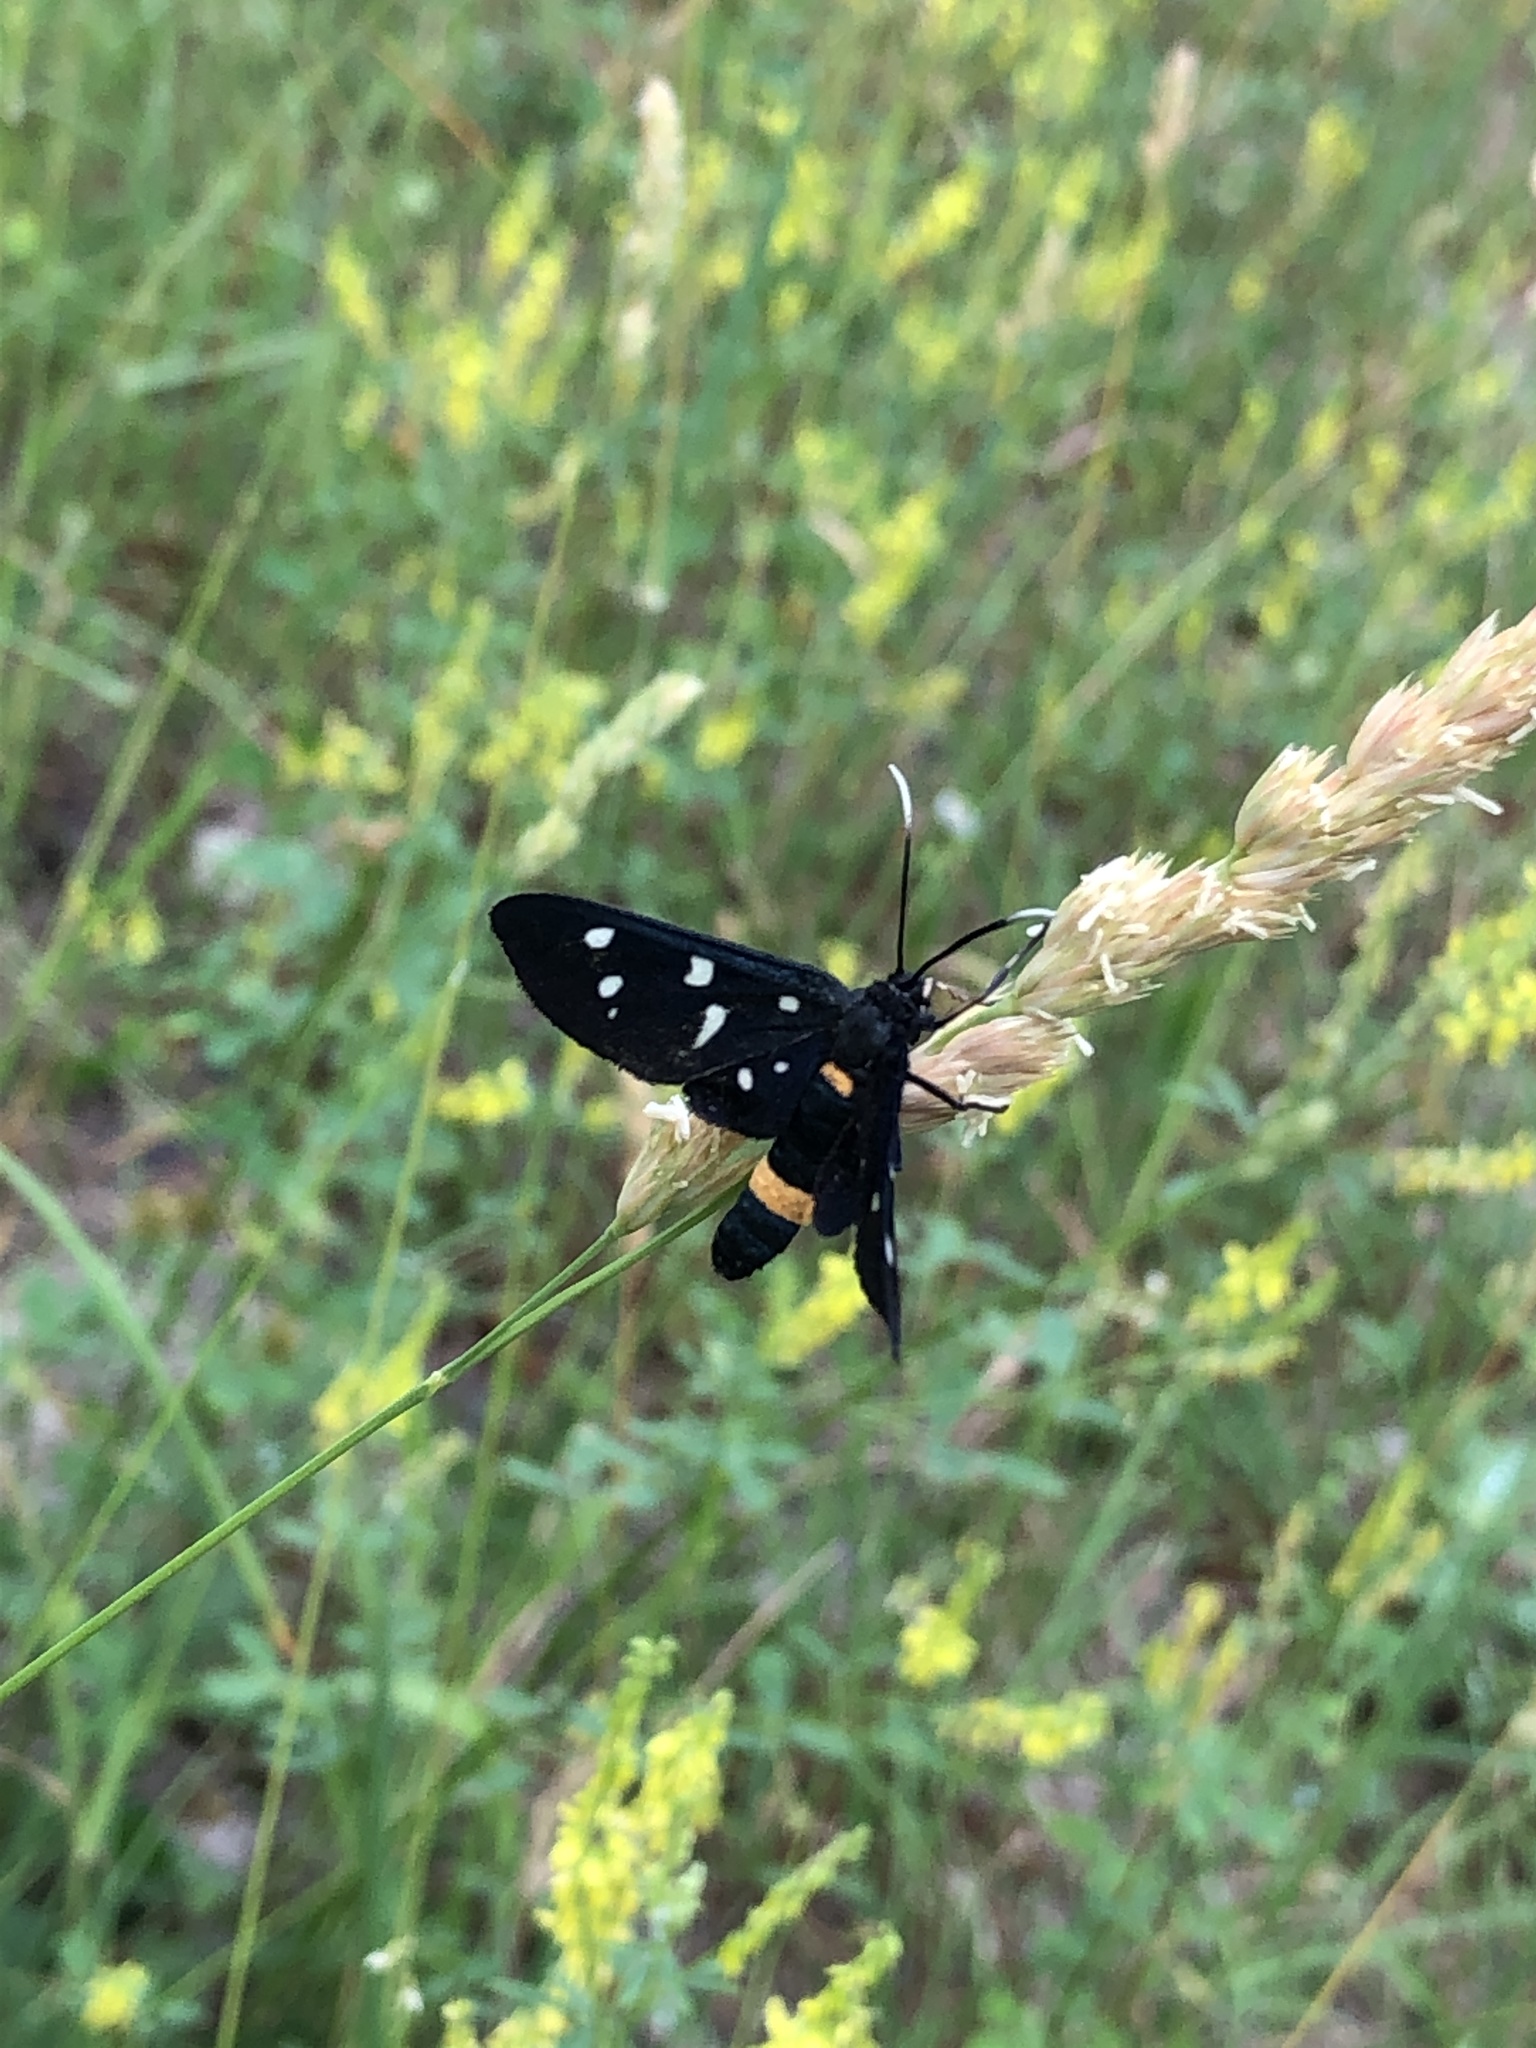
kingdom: Animalia
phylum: Arthropoda
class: Insecta
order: Lepidoptera
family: Erebidae
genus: Amata
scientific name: Amata phegea
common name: Nine-spotted
